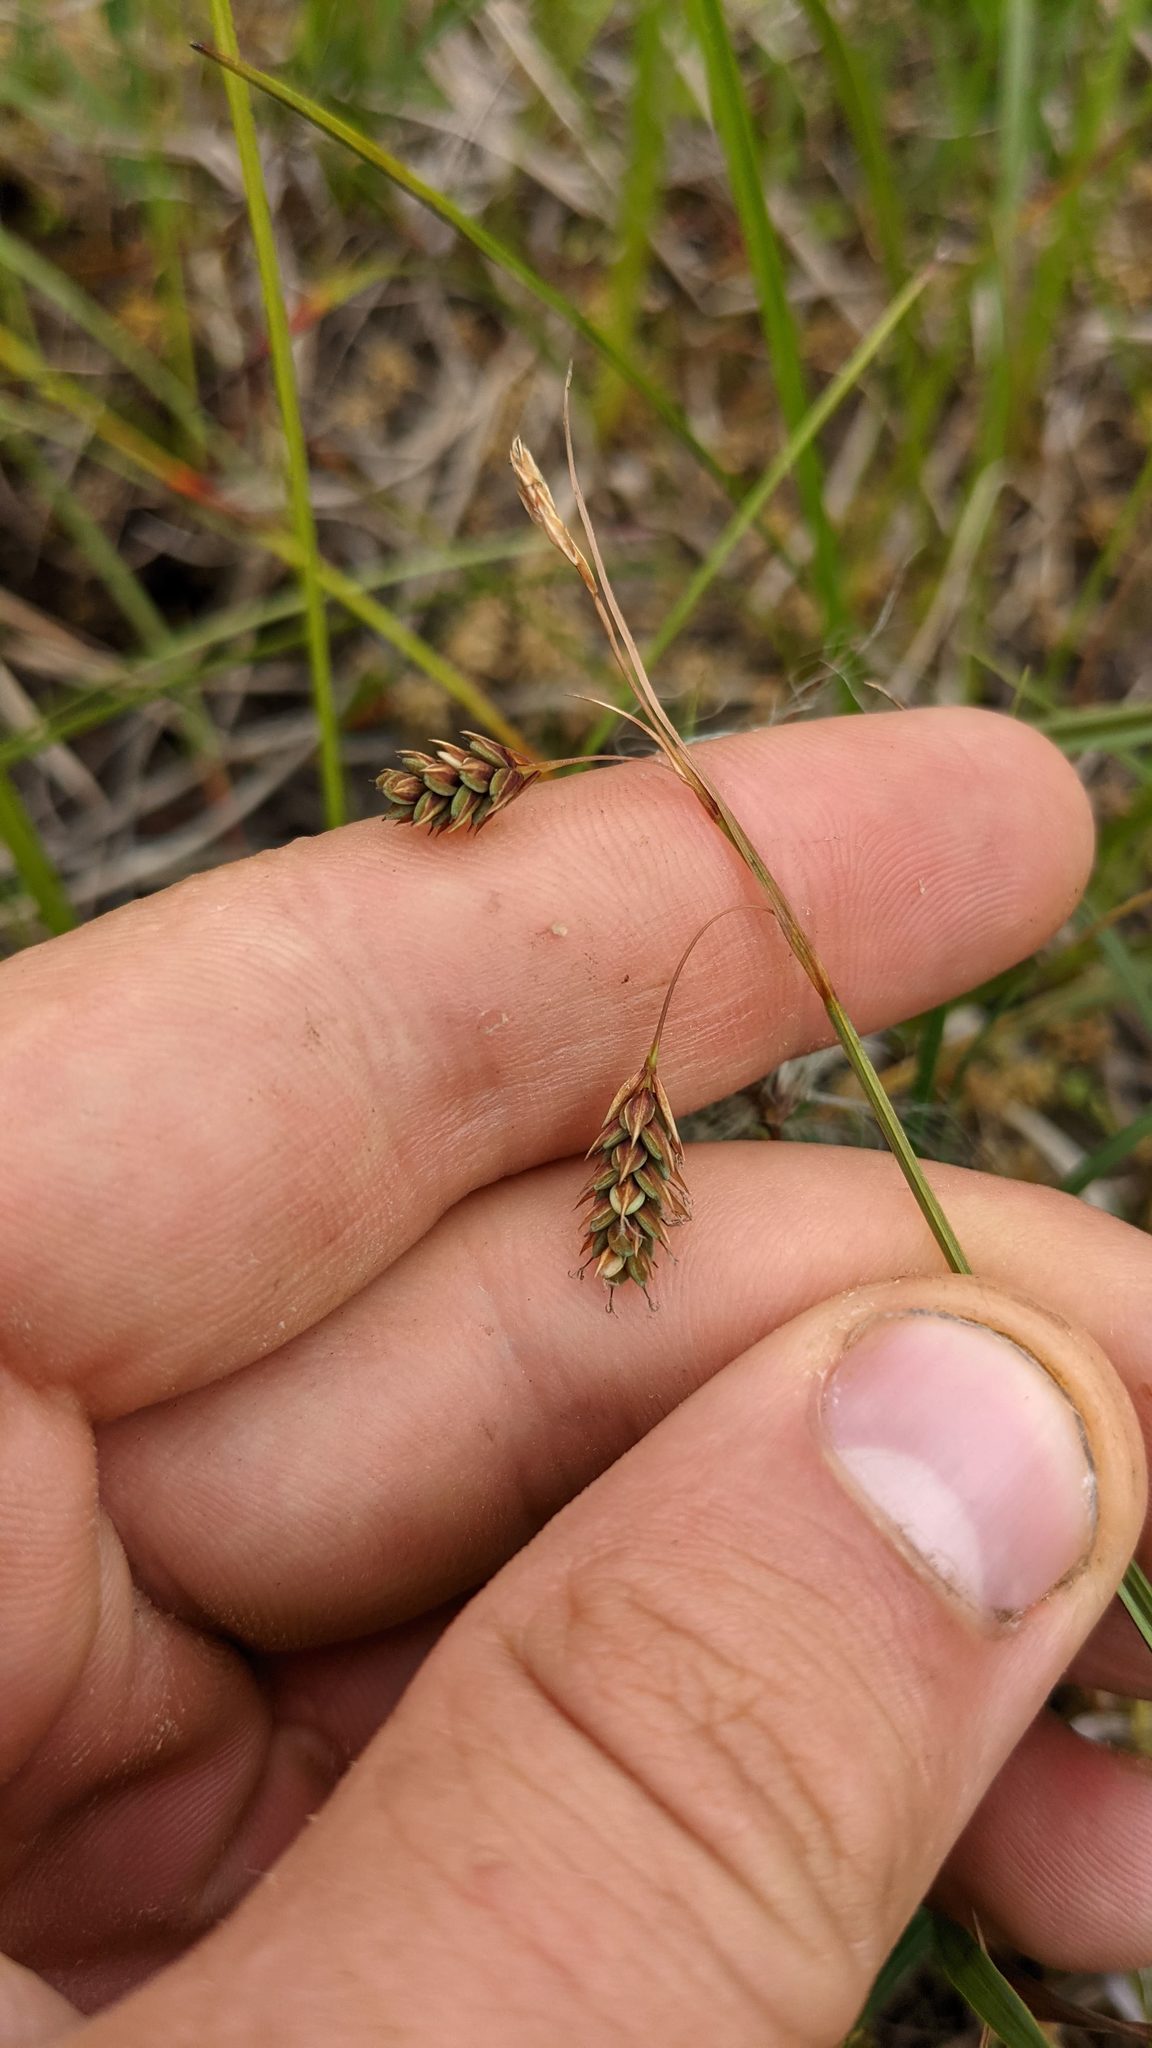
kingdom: Plantae
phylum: Tracheophyta
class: Liliopsida
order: Poales
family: Cyperaceae
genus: Carex
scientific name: Carex magellanica
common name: Bog sedge
